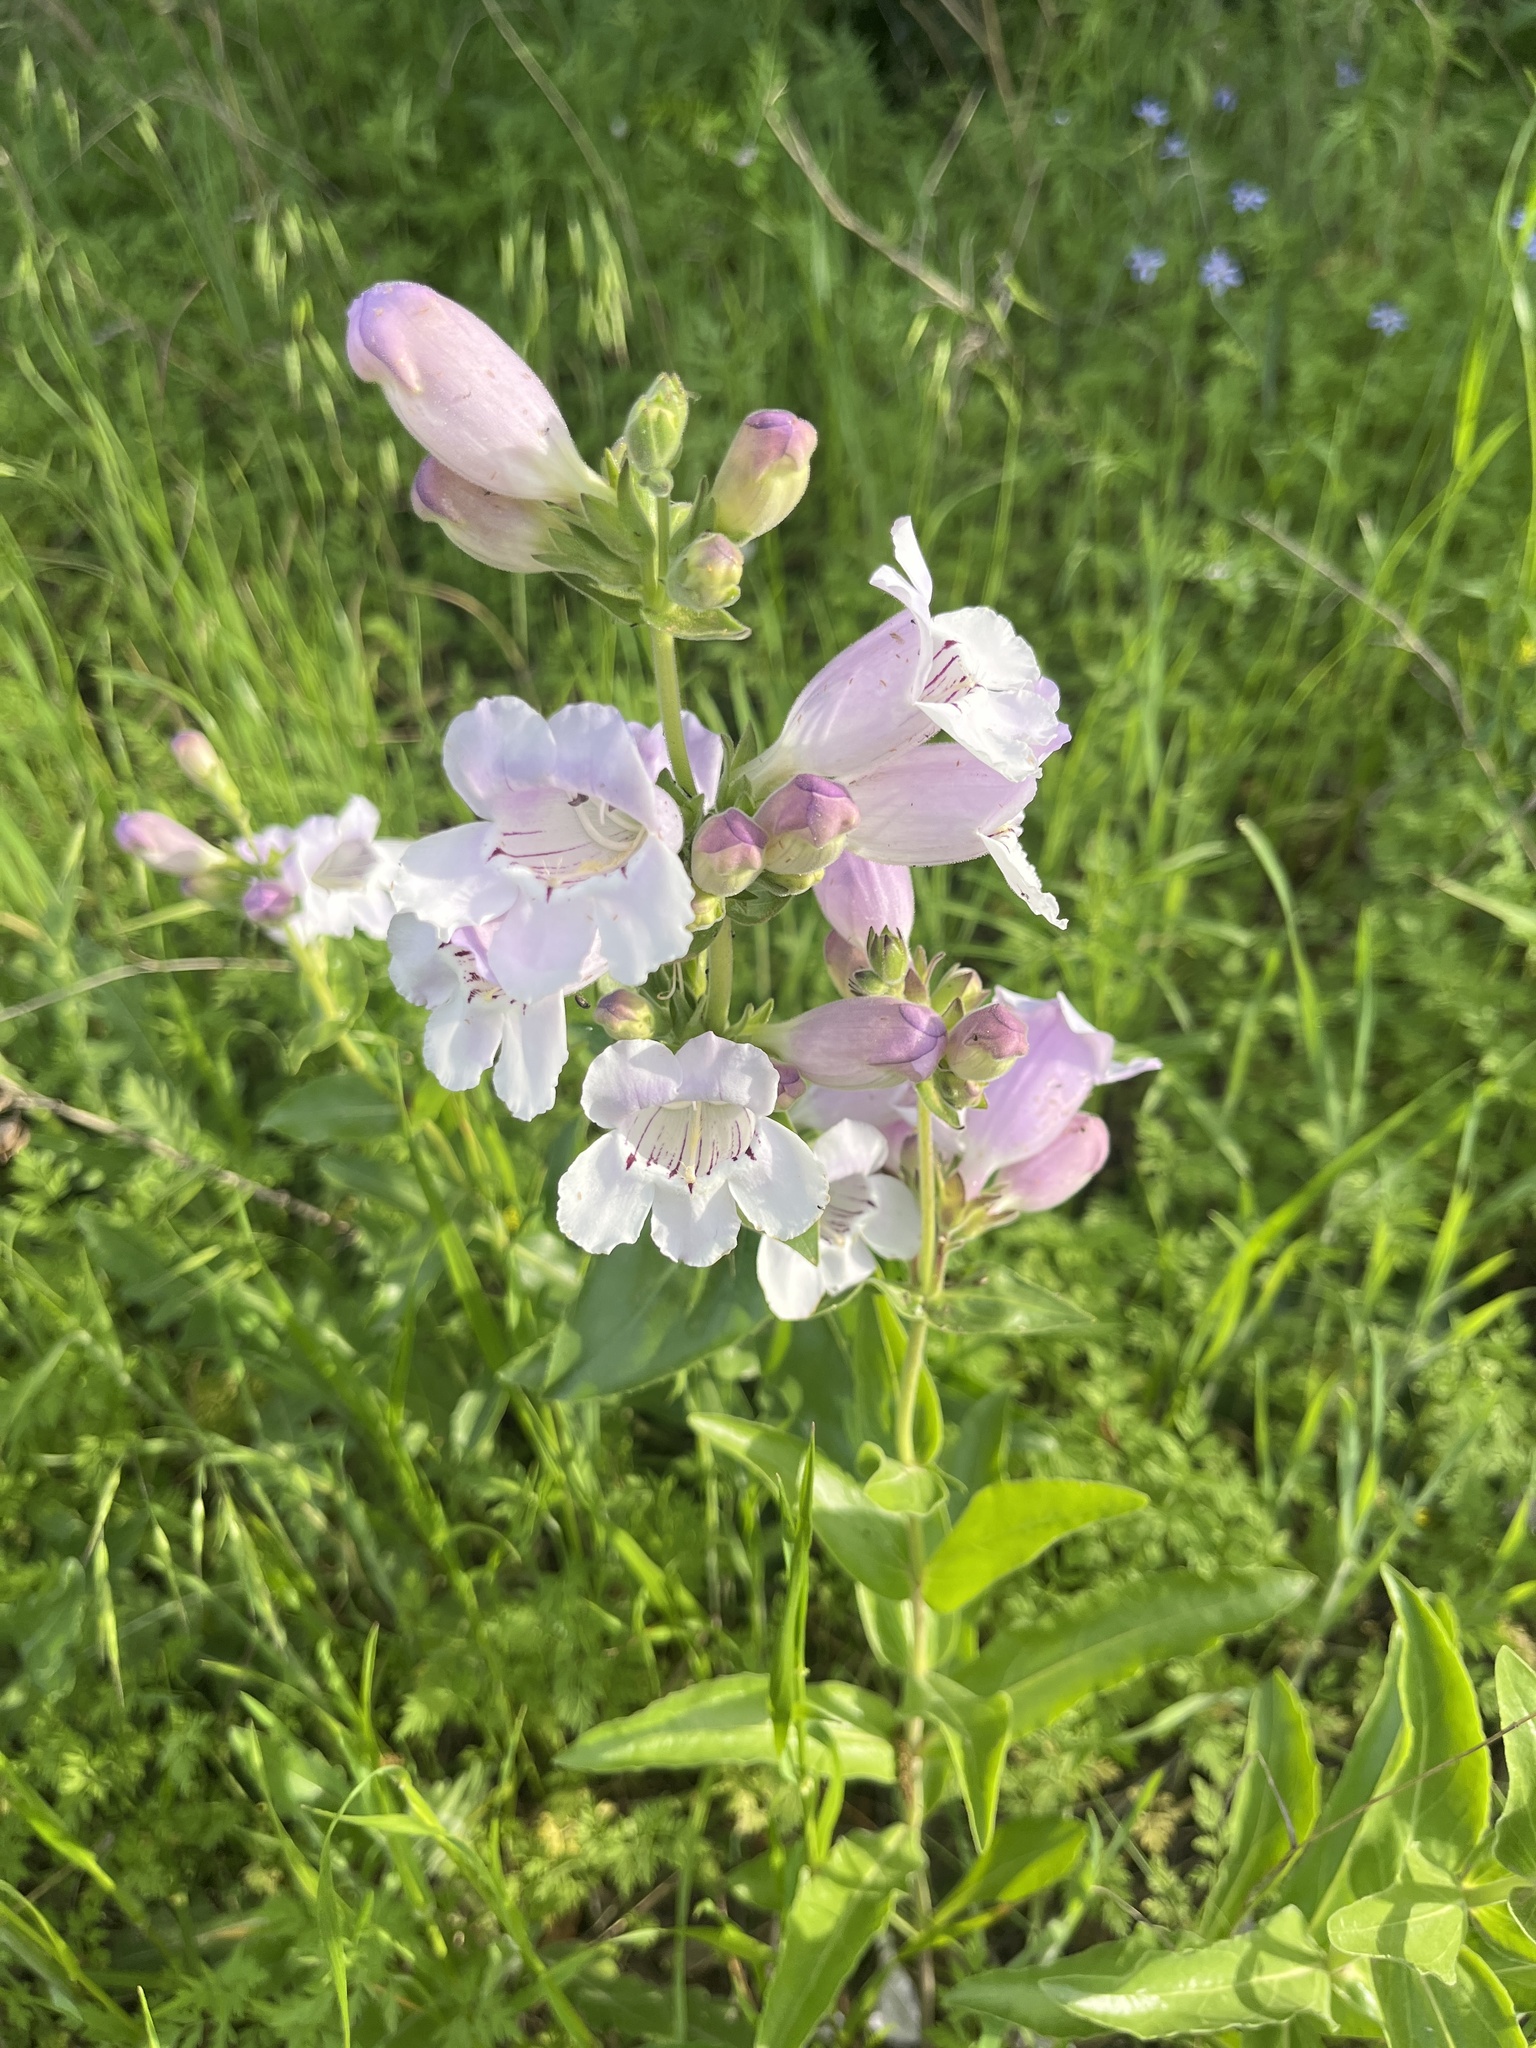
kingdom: Plantae
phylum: Tracheophyta
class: Magnoliopsida
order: Lamiales
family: Plantaginaceae
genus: Penstemon
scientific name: Penstemon cobaea
